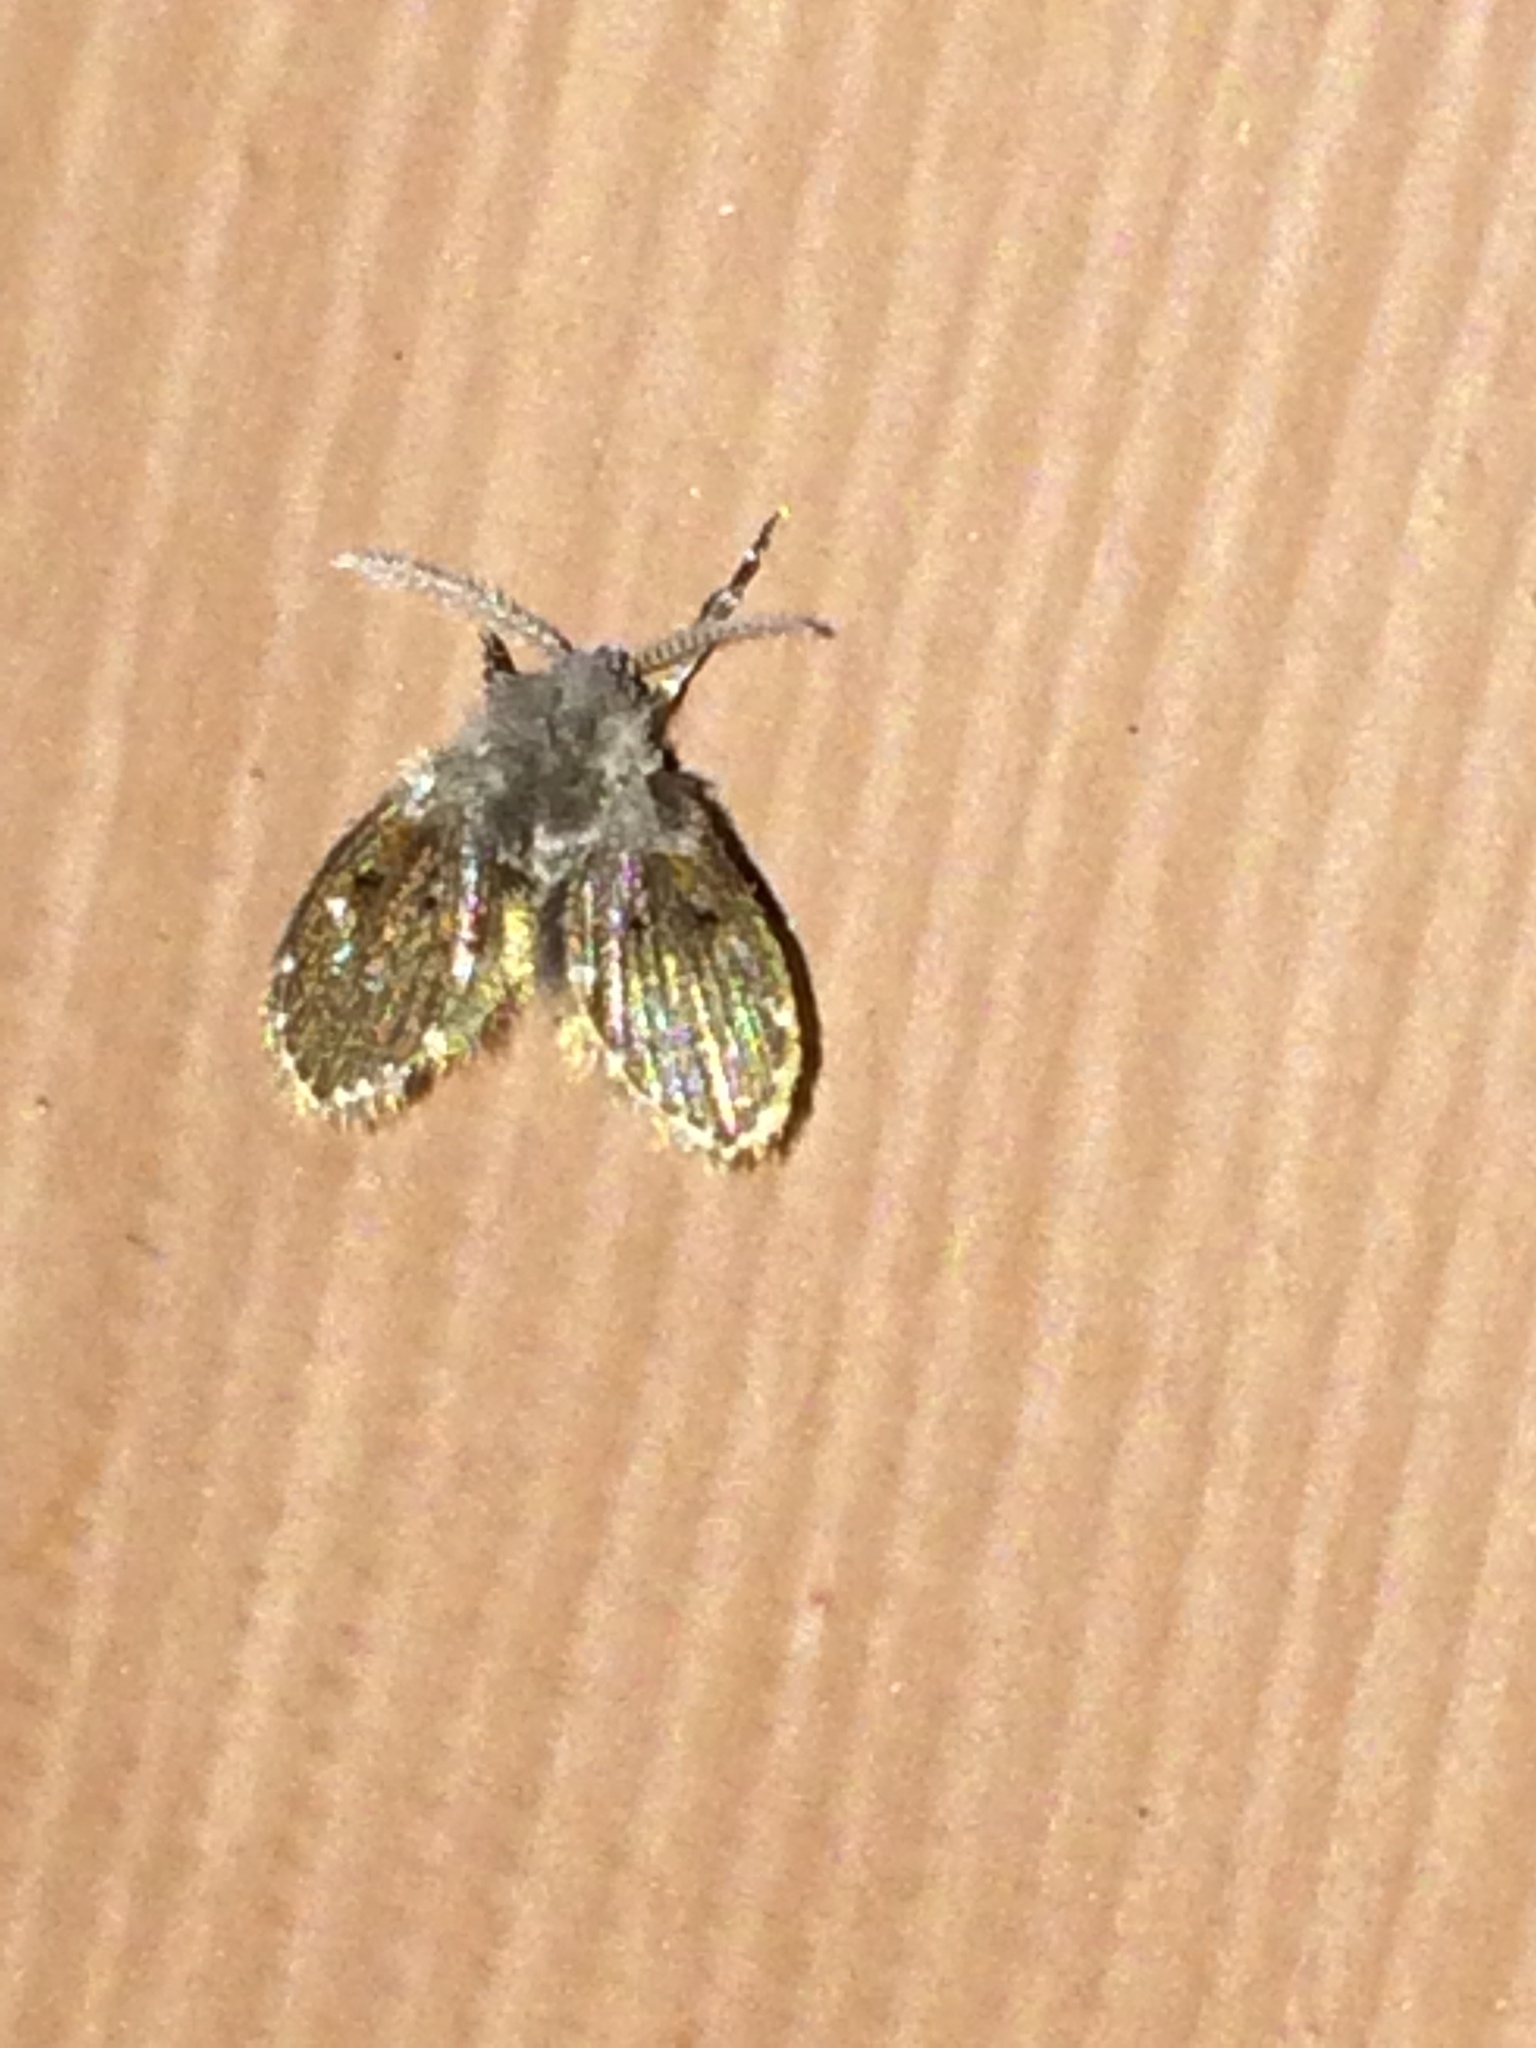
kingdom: Animalia
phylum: Arthropoda
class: Insecta
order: Diptera
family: Psychodidae
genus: Clogmia
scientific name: Clogmia albipunctatus
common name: White-spotted moth fly
